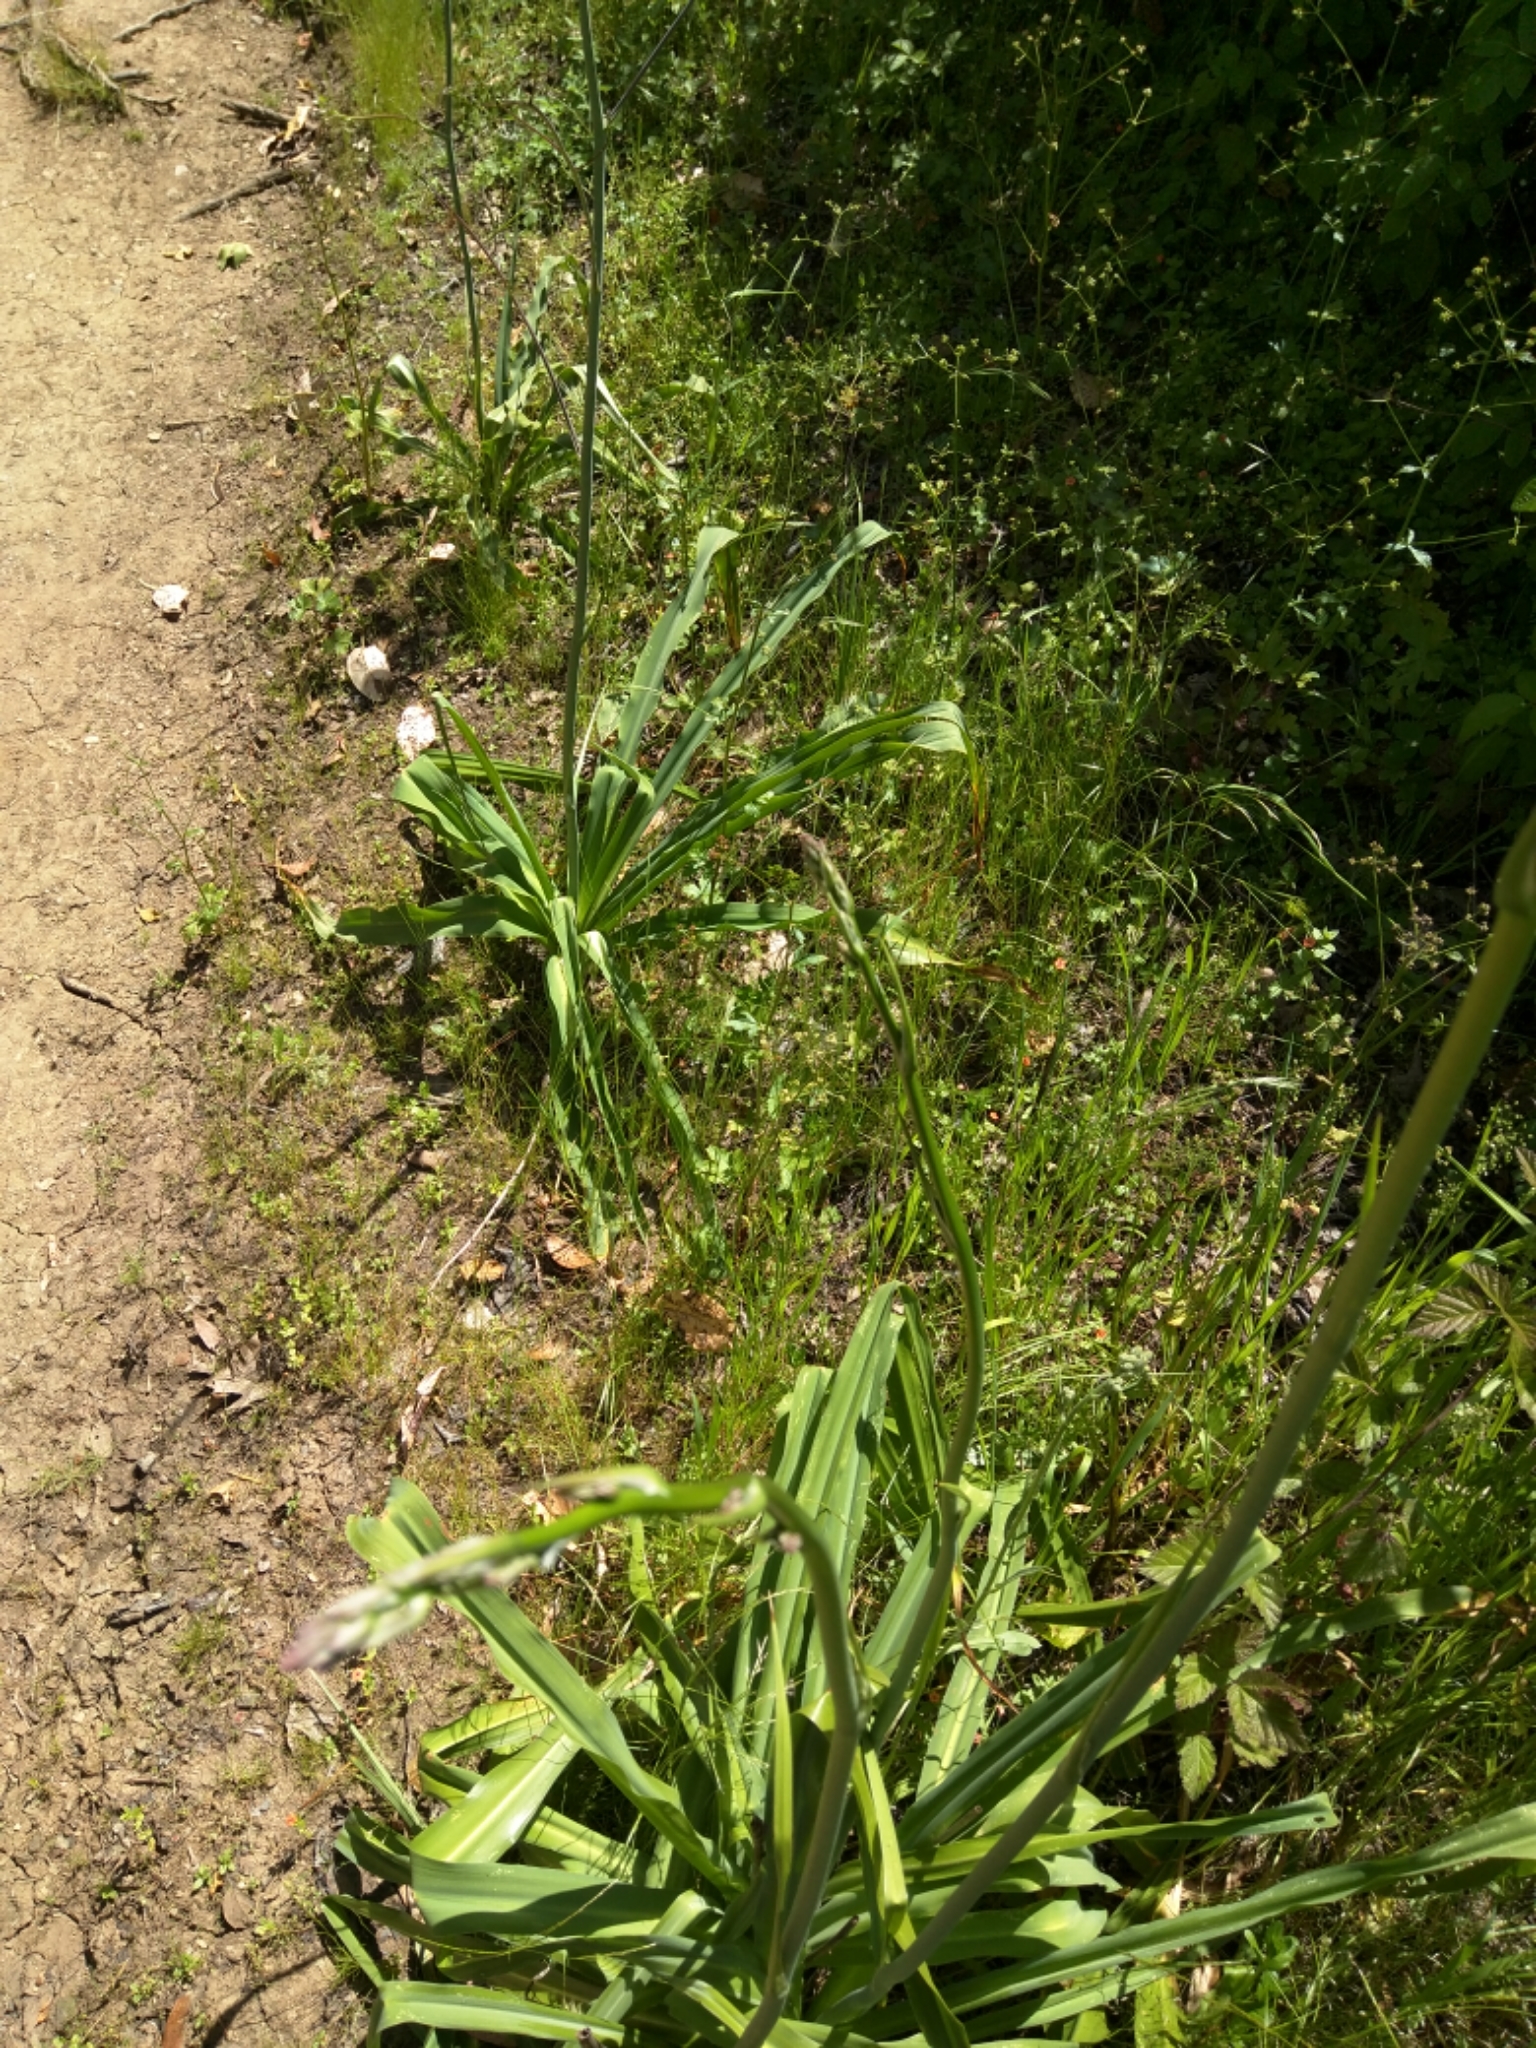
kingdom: Plantae
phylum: Tracheophyta
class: Liliopsida
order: Asparagales
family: Asparagaceae
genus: Chlorogalum
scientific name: Chlorogalum pomeridianum
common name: Amole
